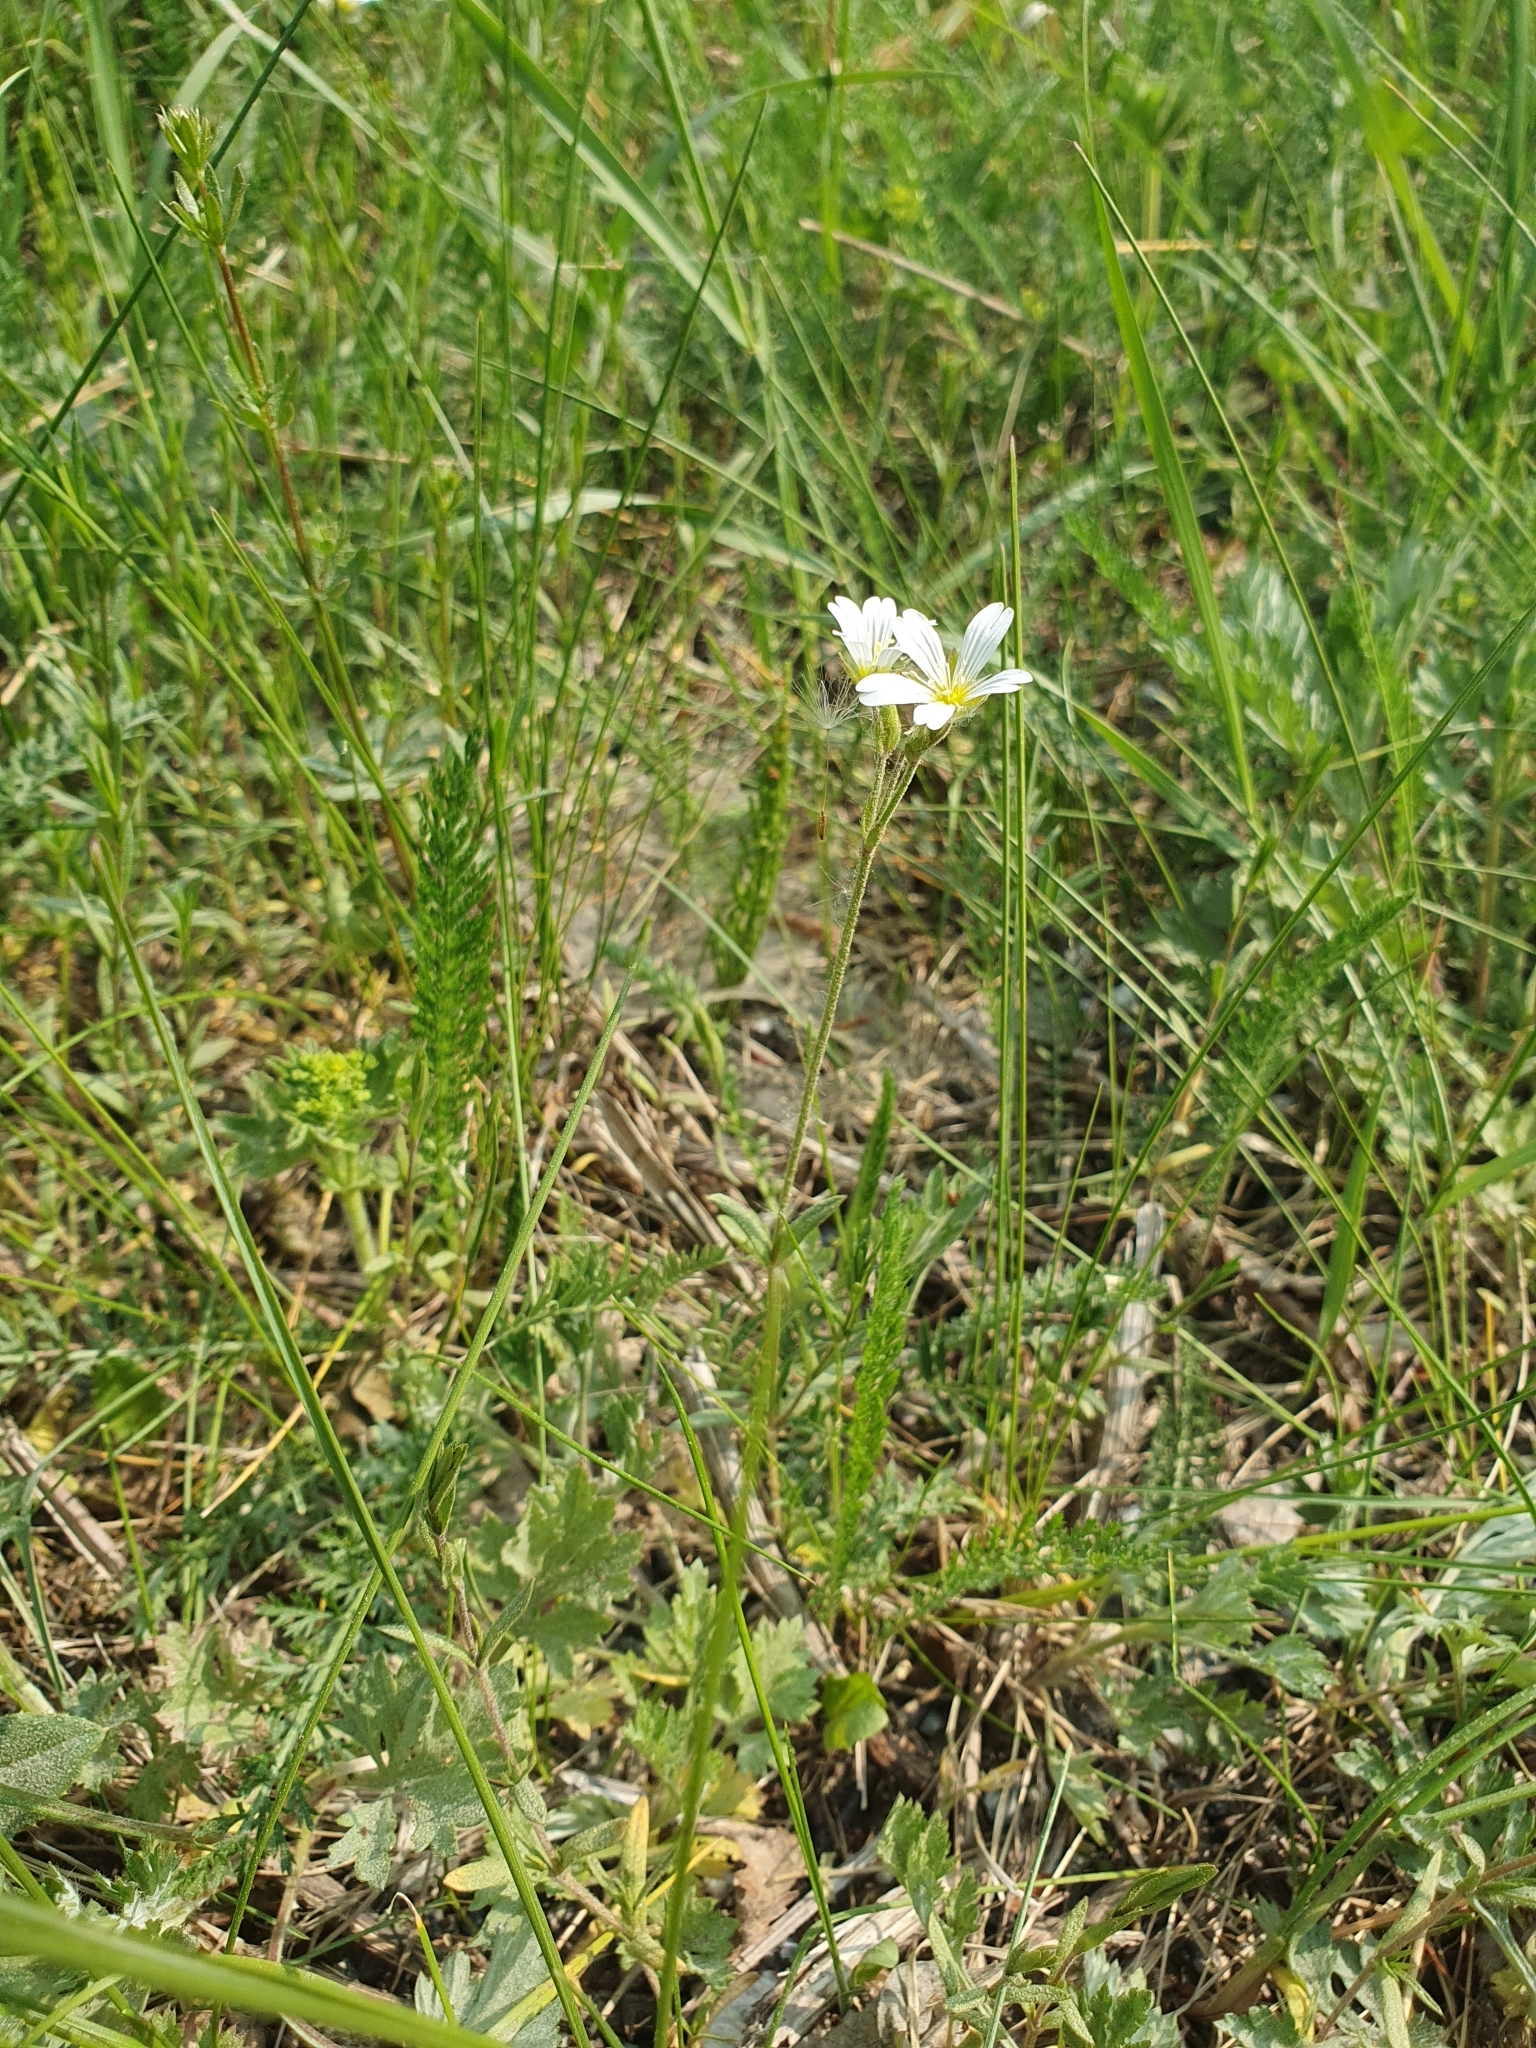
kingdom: Plantae
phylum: Tracheophyta
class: Magnoliopsida
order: Caryophyllales
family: Caryophyllaceae
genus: Cerastium
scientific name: Cerastium arvense
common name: Field mouse-ear
